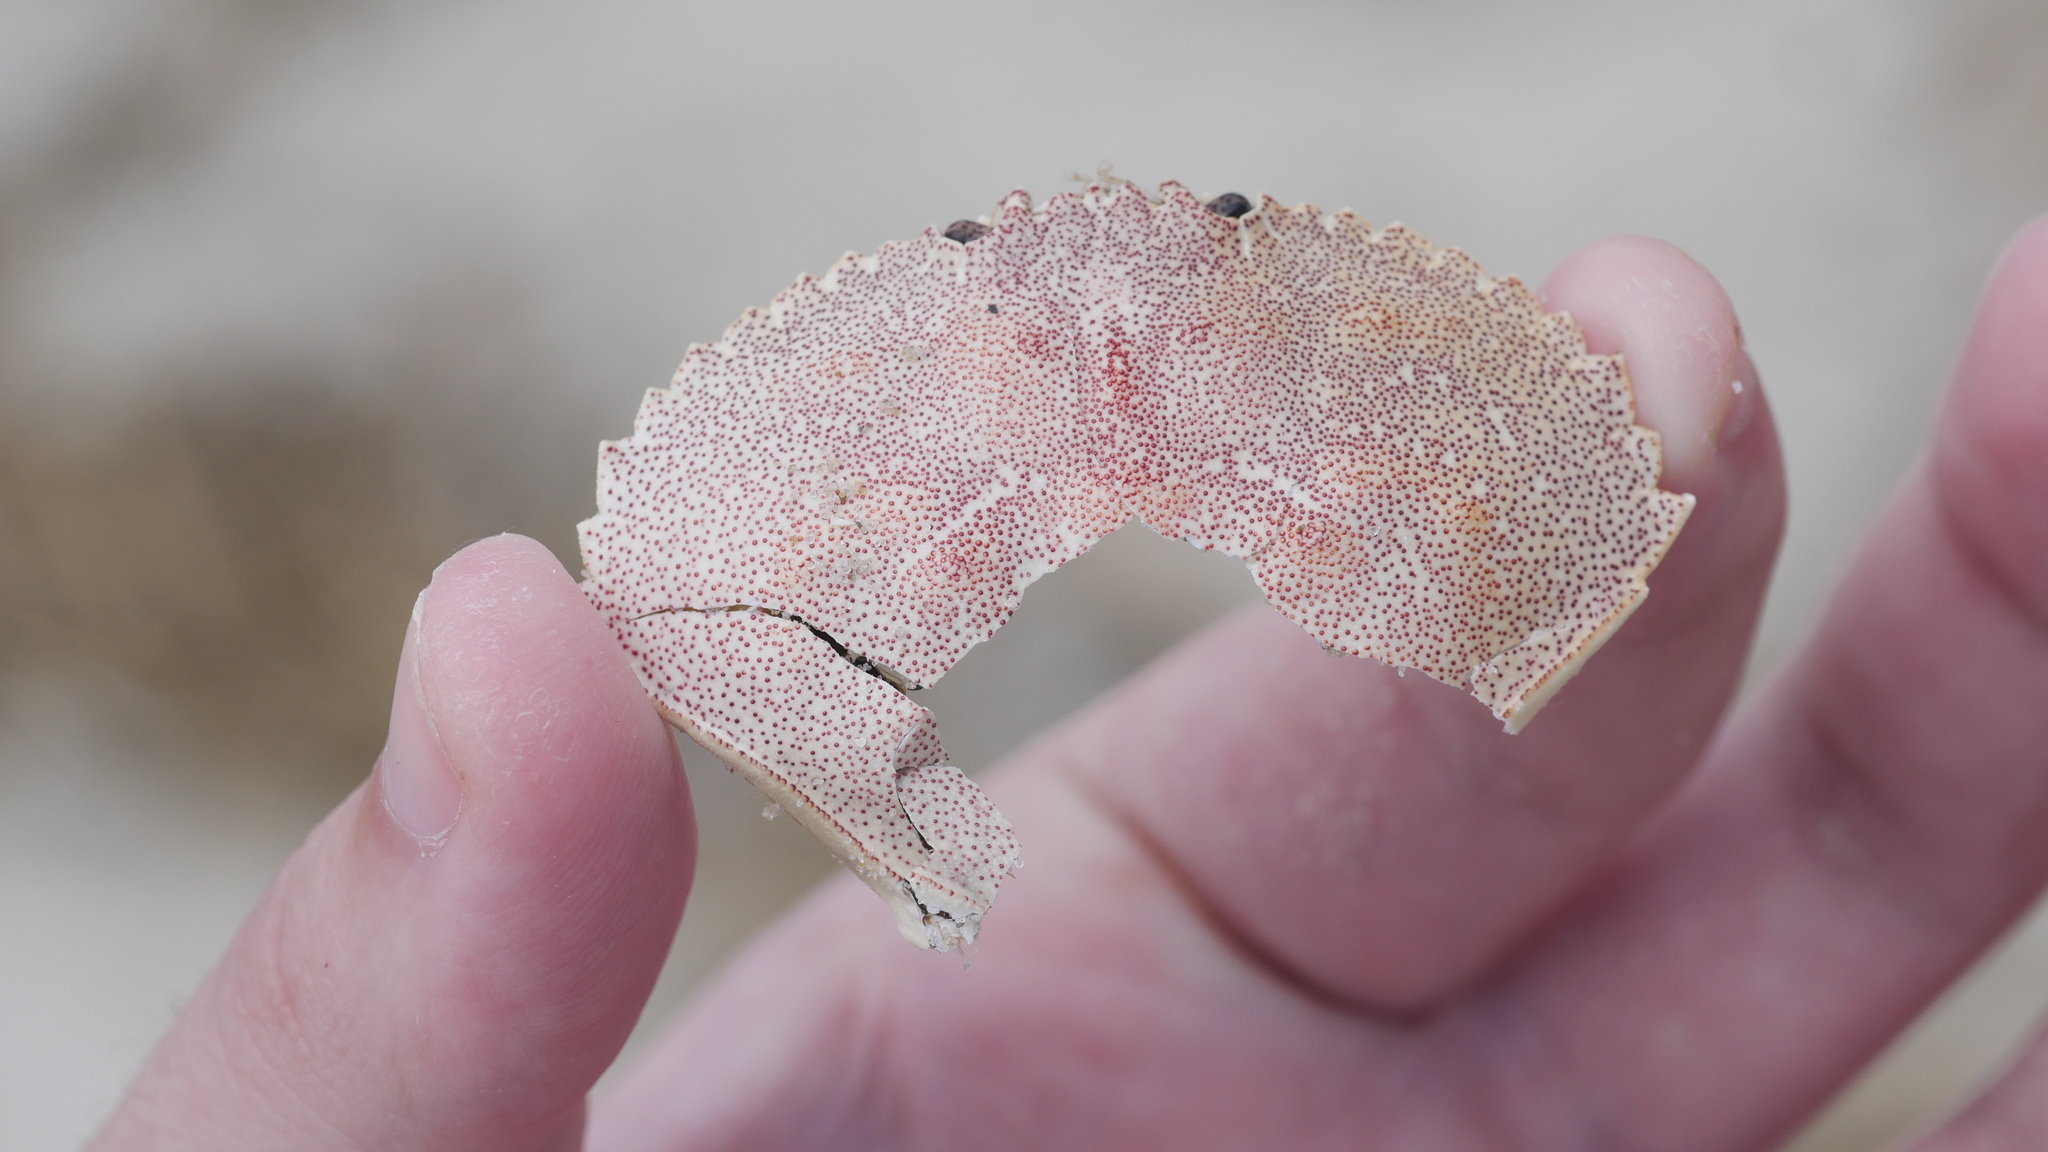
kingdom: Animalia
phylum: Arthropoda
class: Malacostraca
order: Decapoda
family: Cancridae
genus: Cancer
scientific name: Cancer irroratus
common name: Atlantic rock crab
